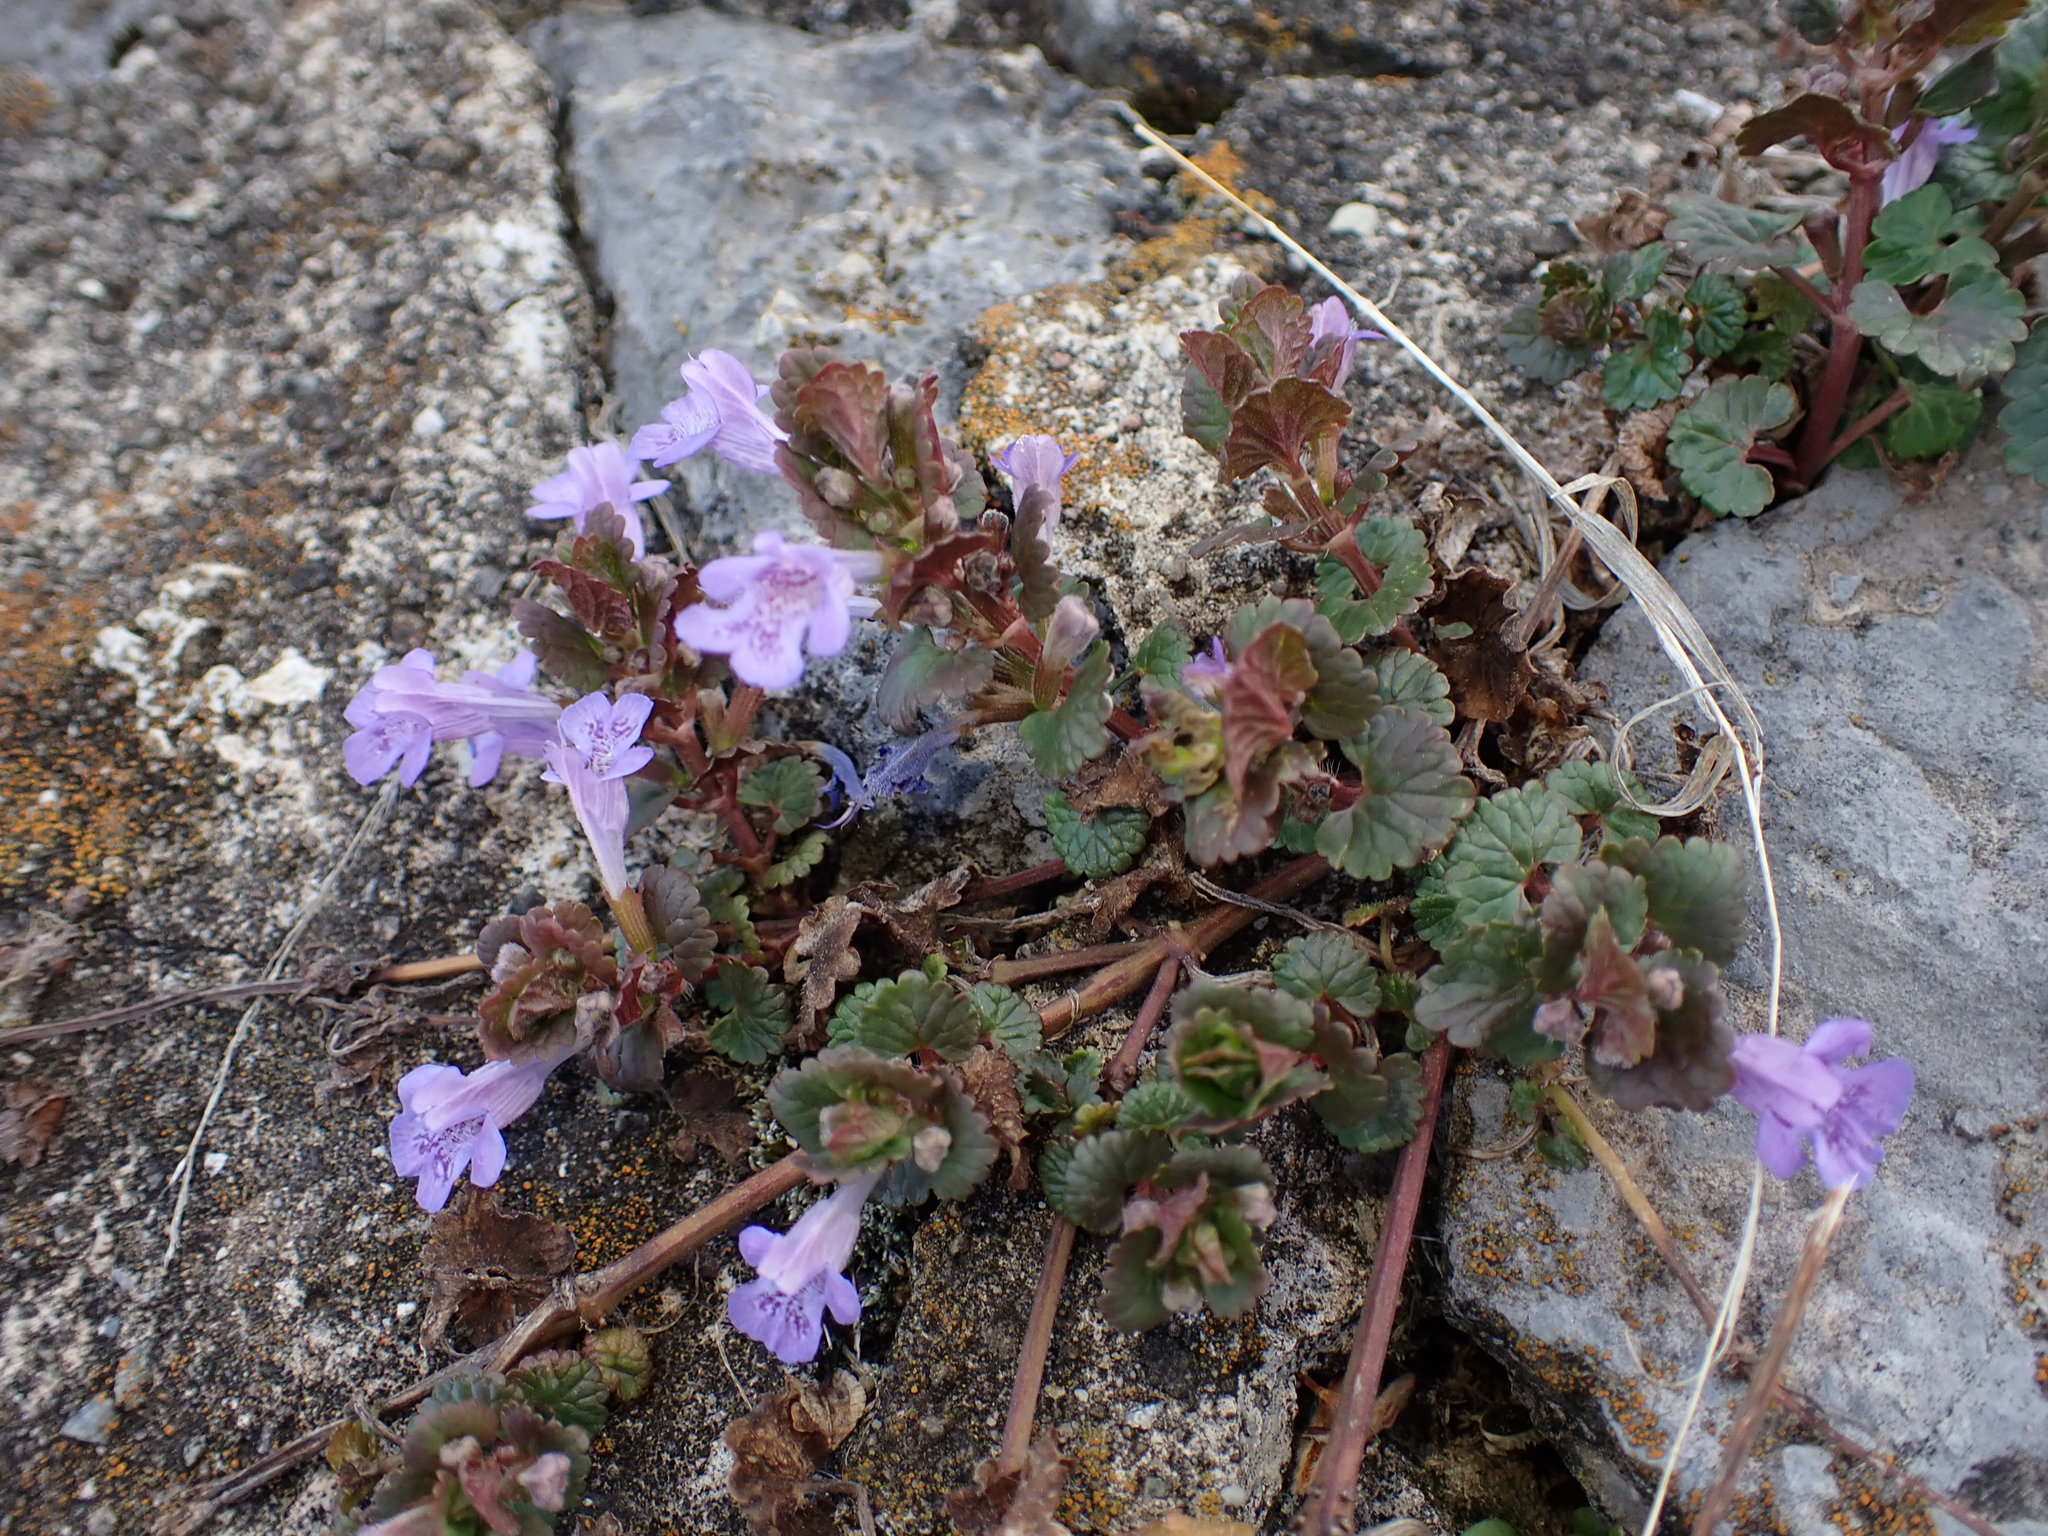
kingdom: Plantae
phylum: Tracheophyta
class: Magnoliopsida
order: Lamiales
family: Lamiaceae
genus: Glechoma
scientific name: Glechoma hederacea
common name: Ground ivy
